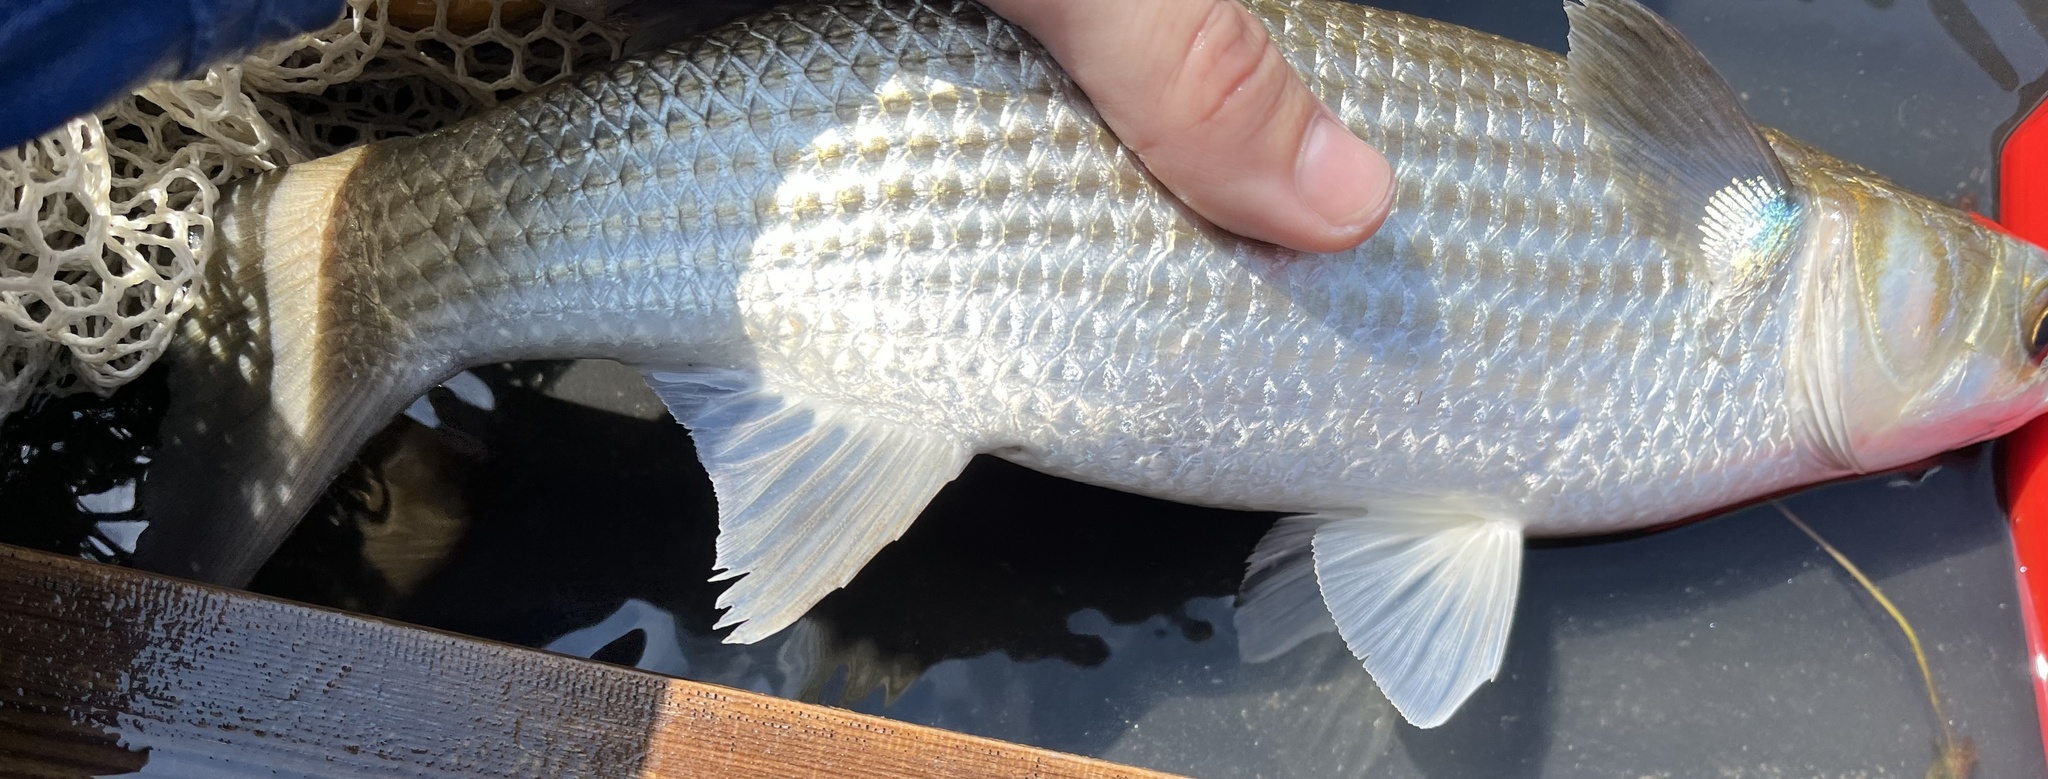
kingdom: Animalia
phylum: Chordata
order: Mugiliformes
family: Mugilidae
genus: Mugil
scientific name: Mugil cephalus
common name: Grey mullet
